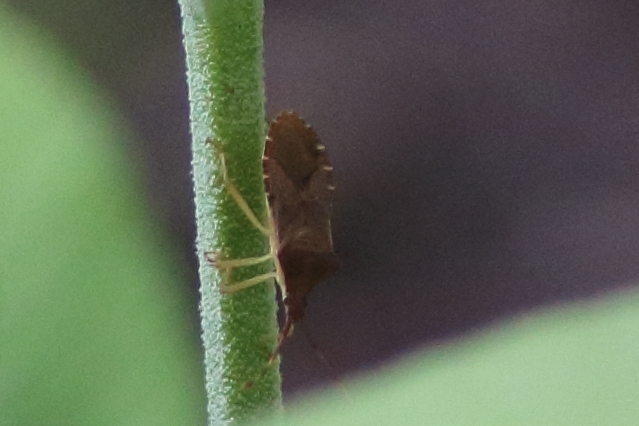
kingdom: Animalia
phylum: Arthropoda
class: Insecta
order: Hemiptera
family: Coreidae
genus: Gonocerus
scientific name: Gonocerus acuteangulatus
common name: Box bug
